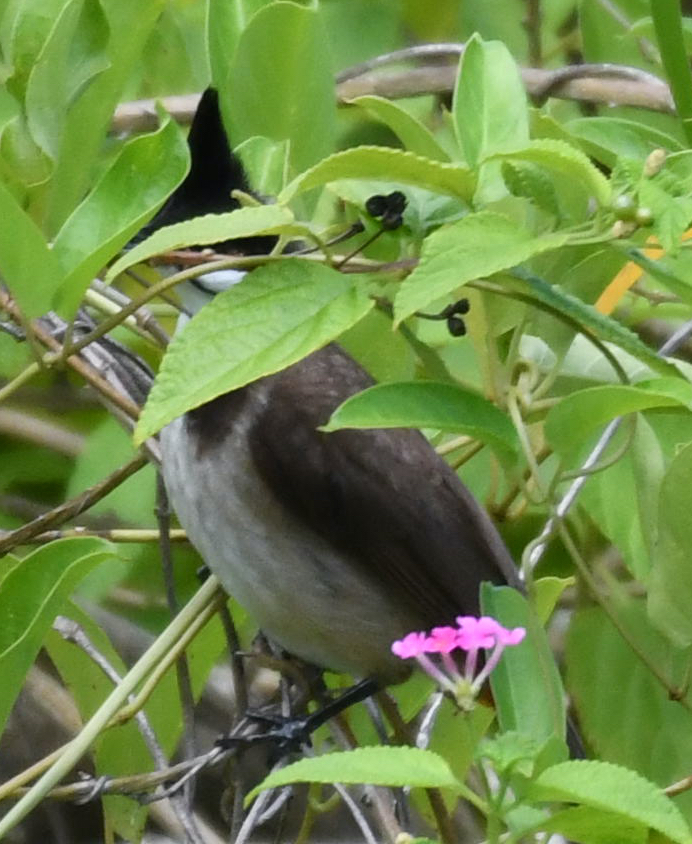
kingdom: Animalia
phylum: Chordata
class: Aves
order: Passeriformes
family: Pycnonotidae
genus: Pycnonotus
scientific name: Pycnonotus jocosus
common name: Red-whiskered bulbul
